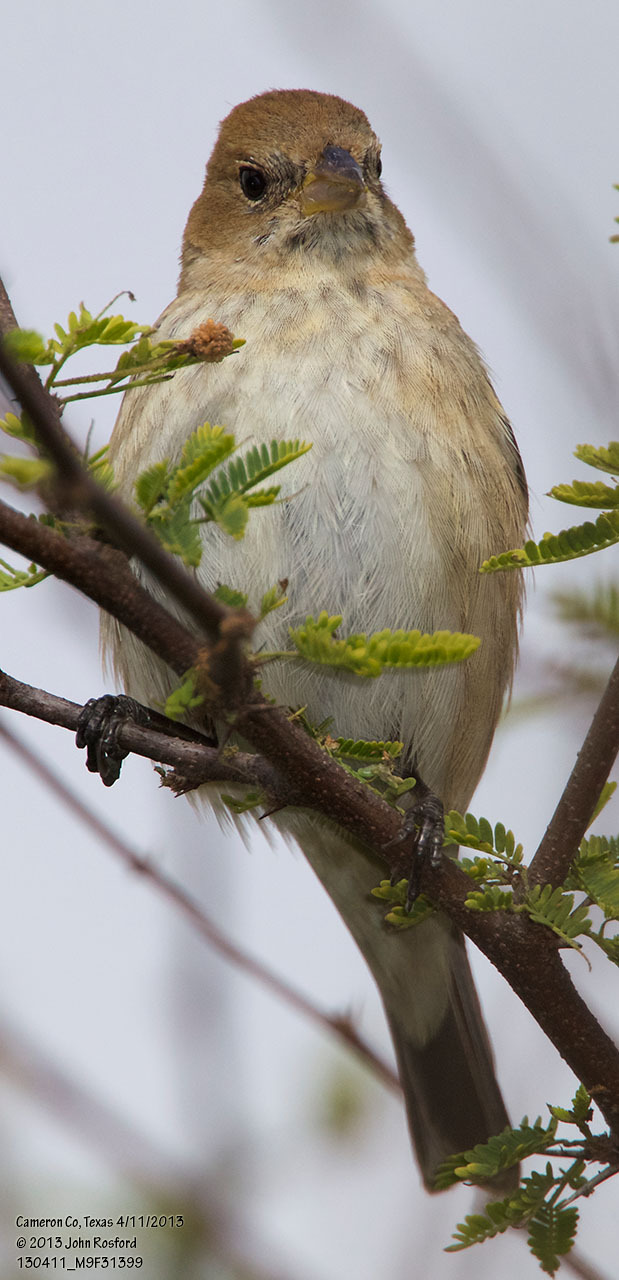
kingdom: Animalia
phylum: Chordata
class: Aves
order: Passeriformes
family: Cardinalidae
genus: Passerina
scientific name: Passerina cyanea
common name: Indigo bunting
